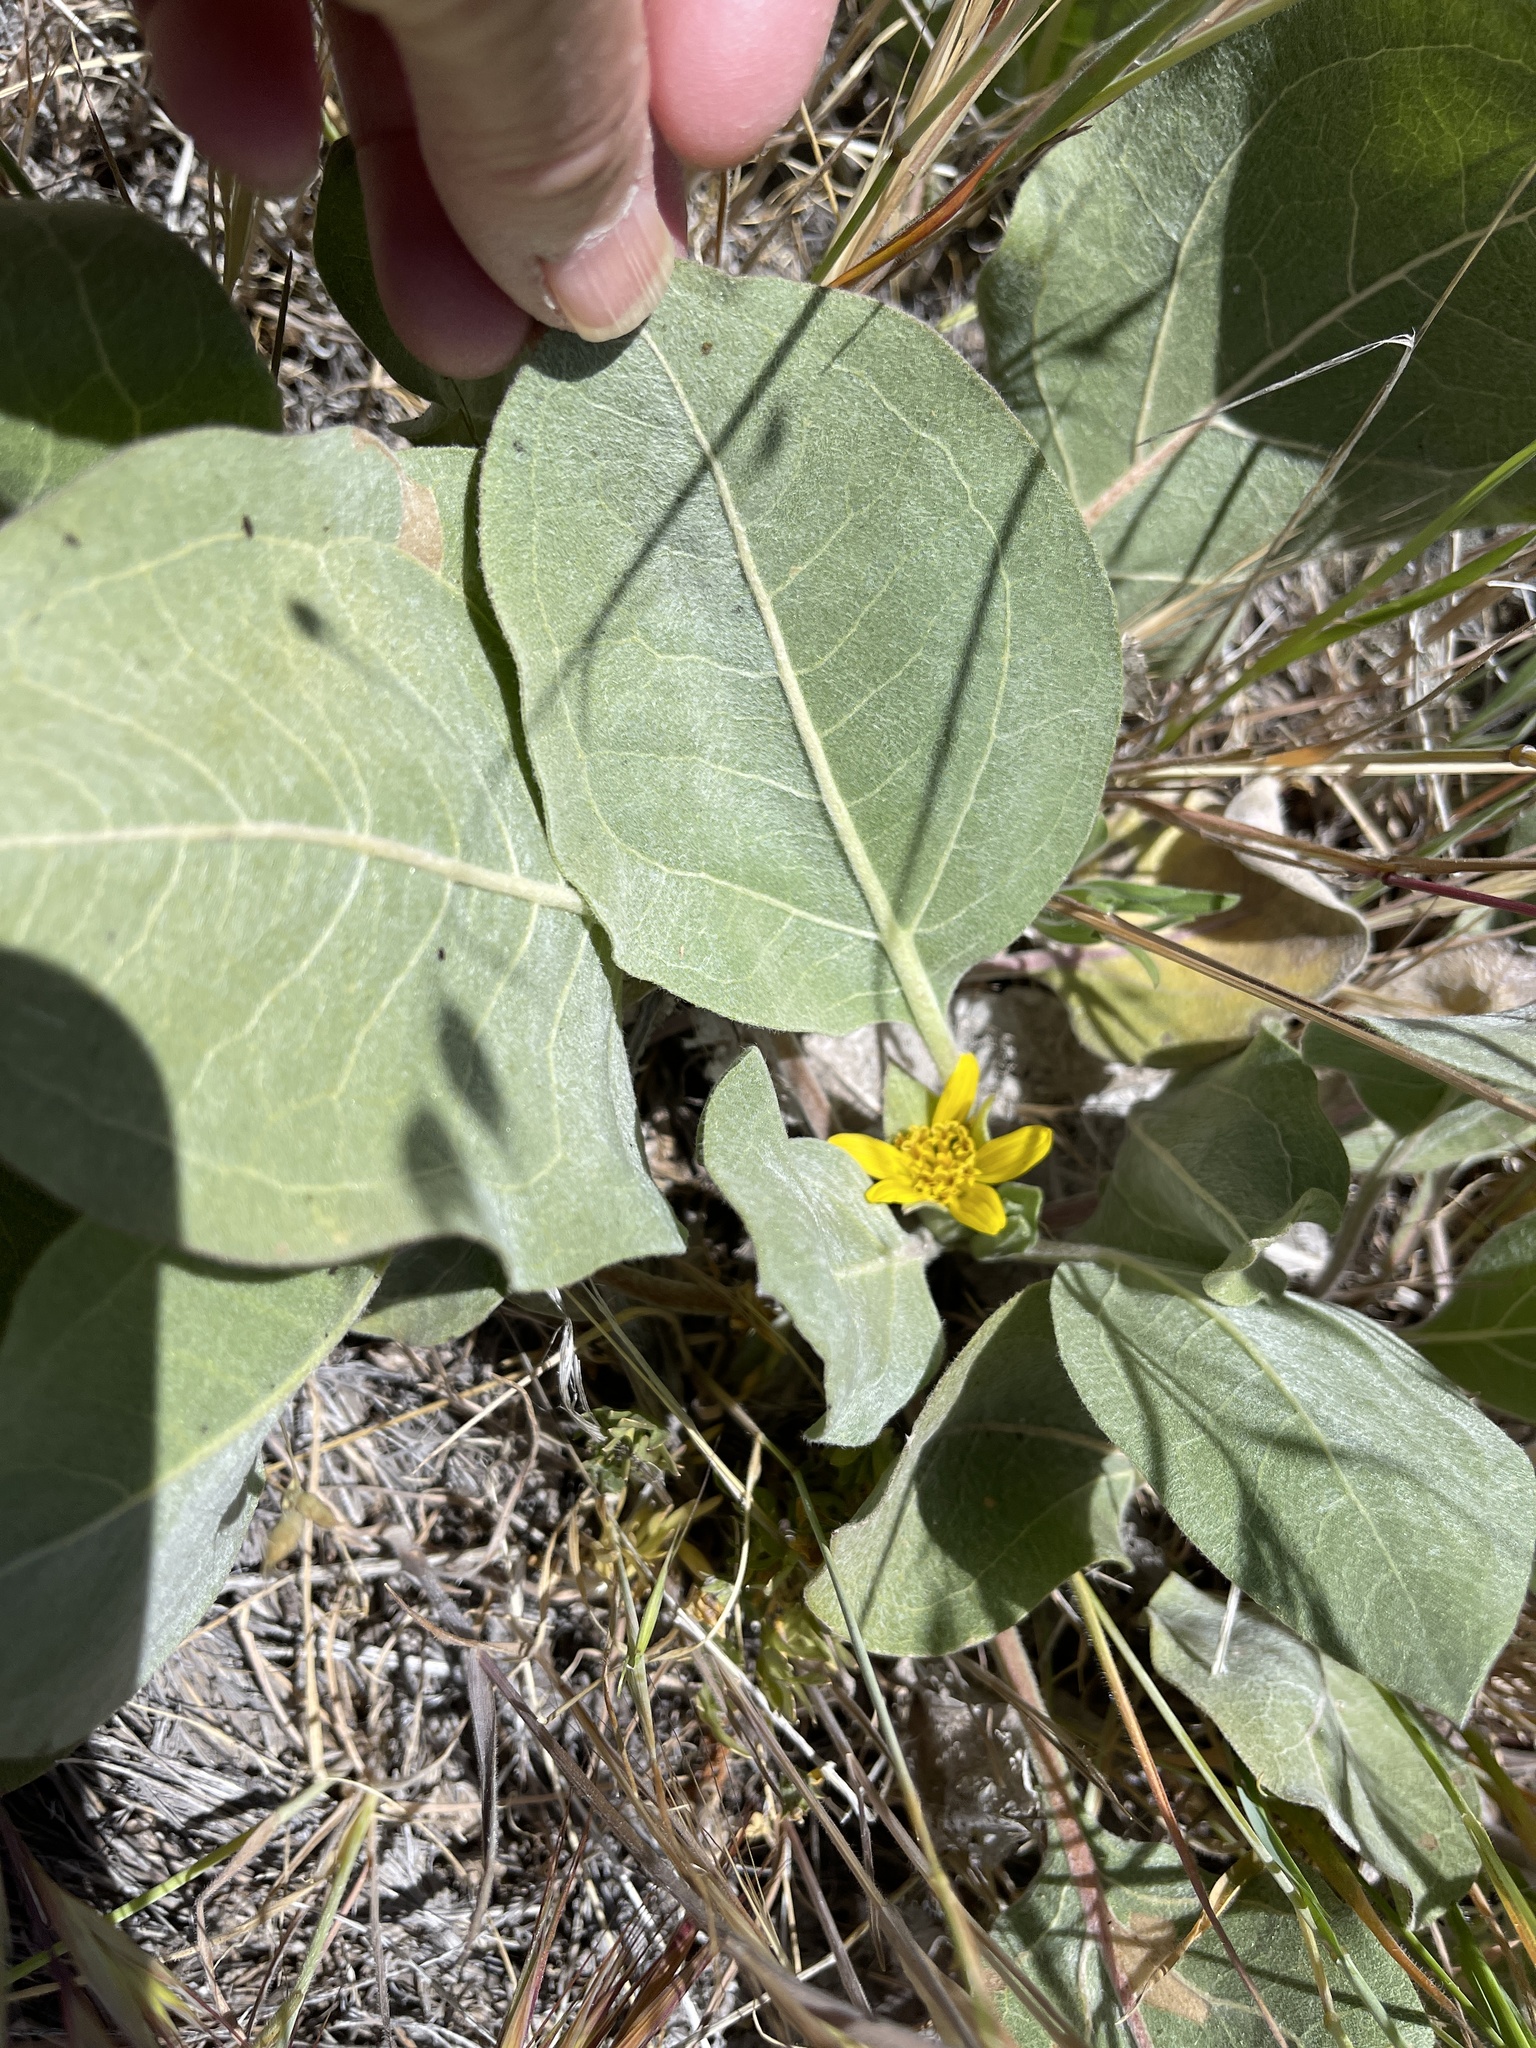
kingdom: Plantae
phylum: Tracheophyta
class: Magnoliopsida
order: Asterales
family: Asteraceae
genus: Agnorhiza
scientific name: Agnorhiza ovata
